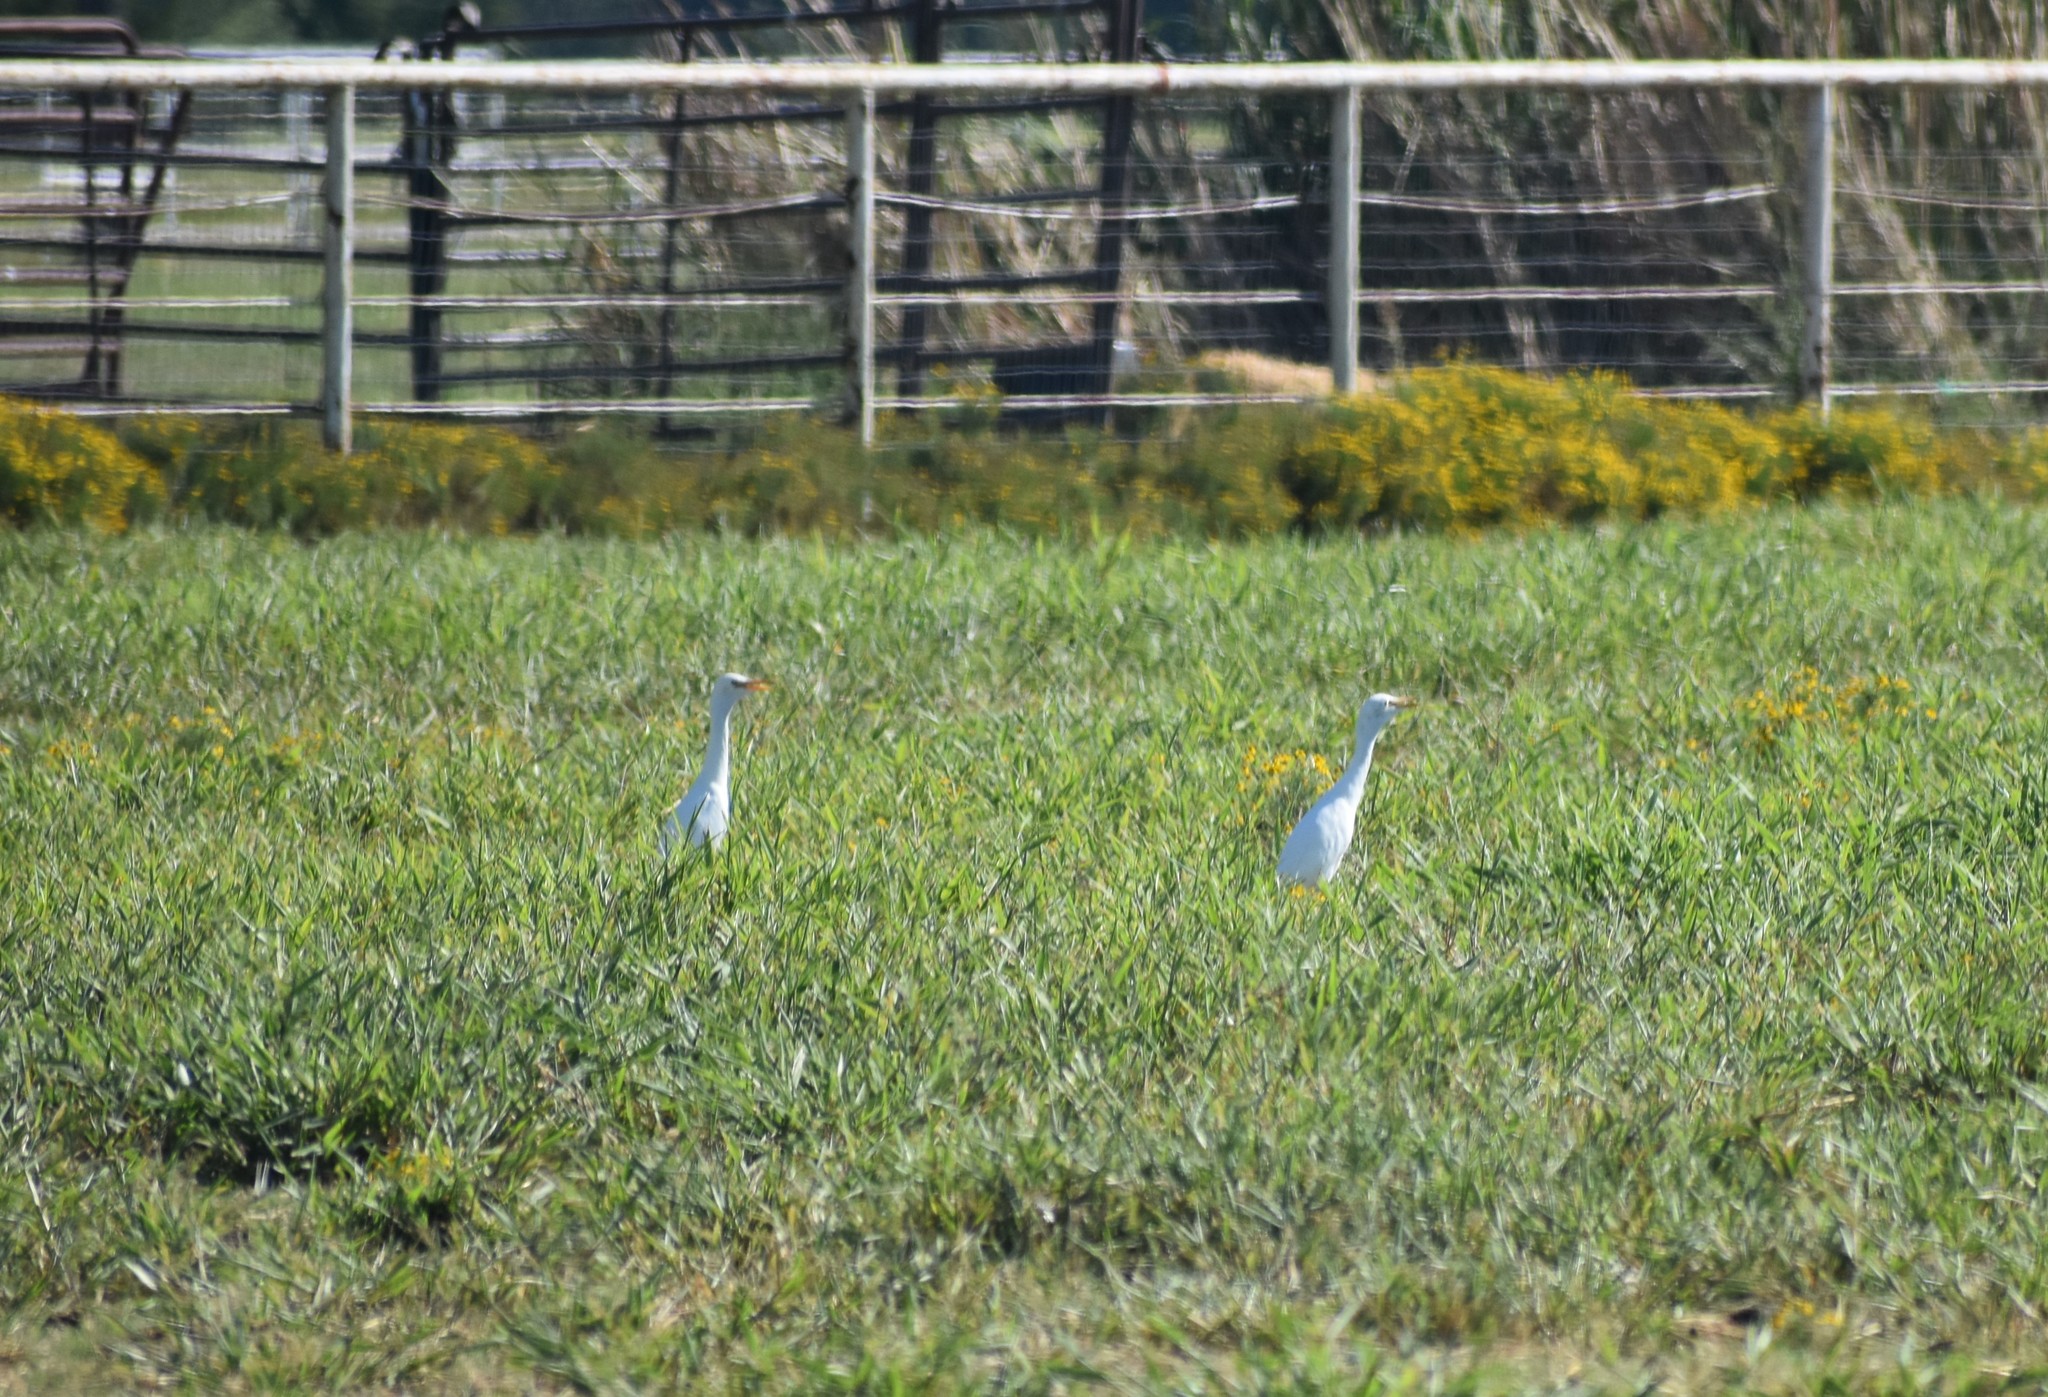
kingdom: Animalia
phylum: Chordata
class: Aves
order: Pelecaniformes
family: Ardeidae
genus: Bubulcus
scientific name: Bubulcus ibis
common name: Cattle egret
